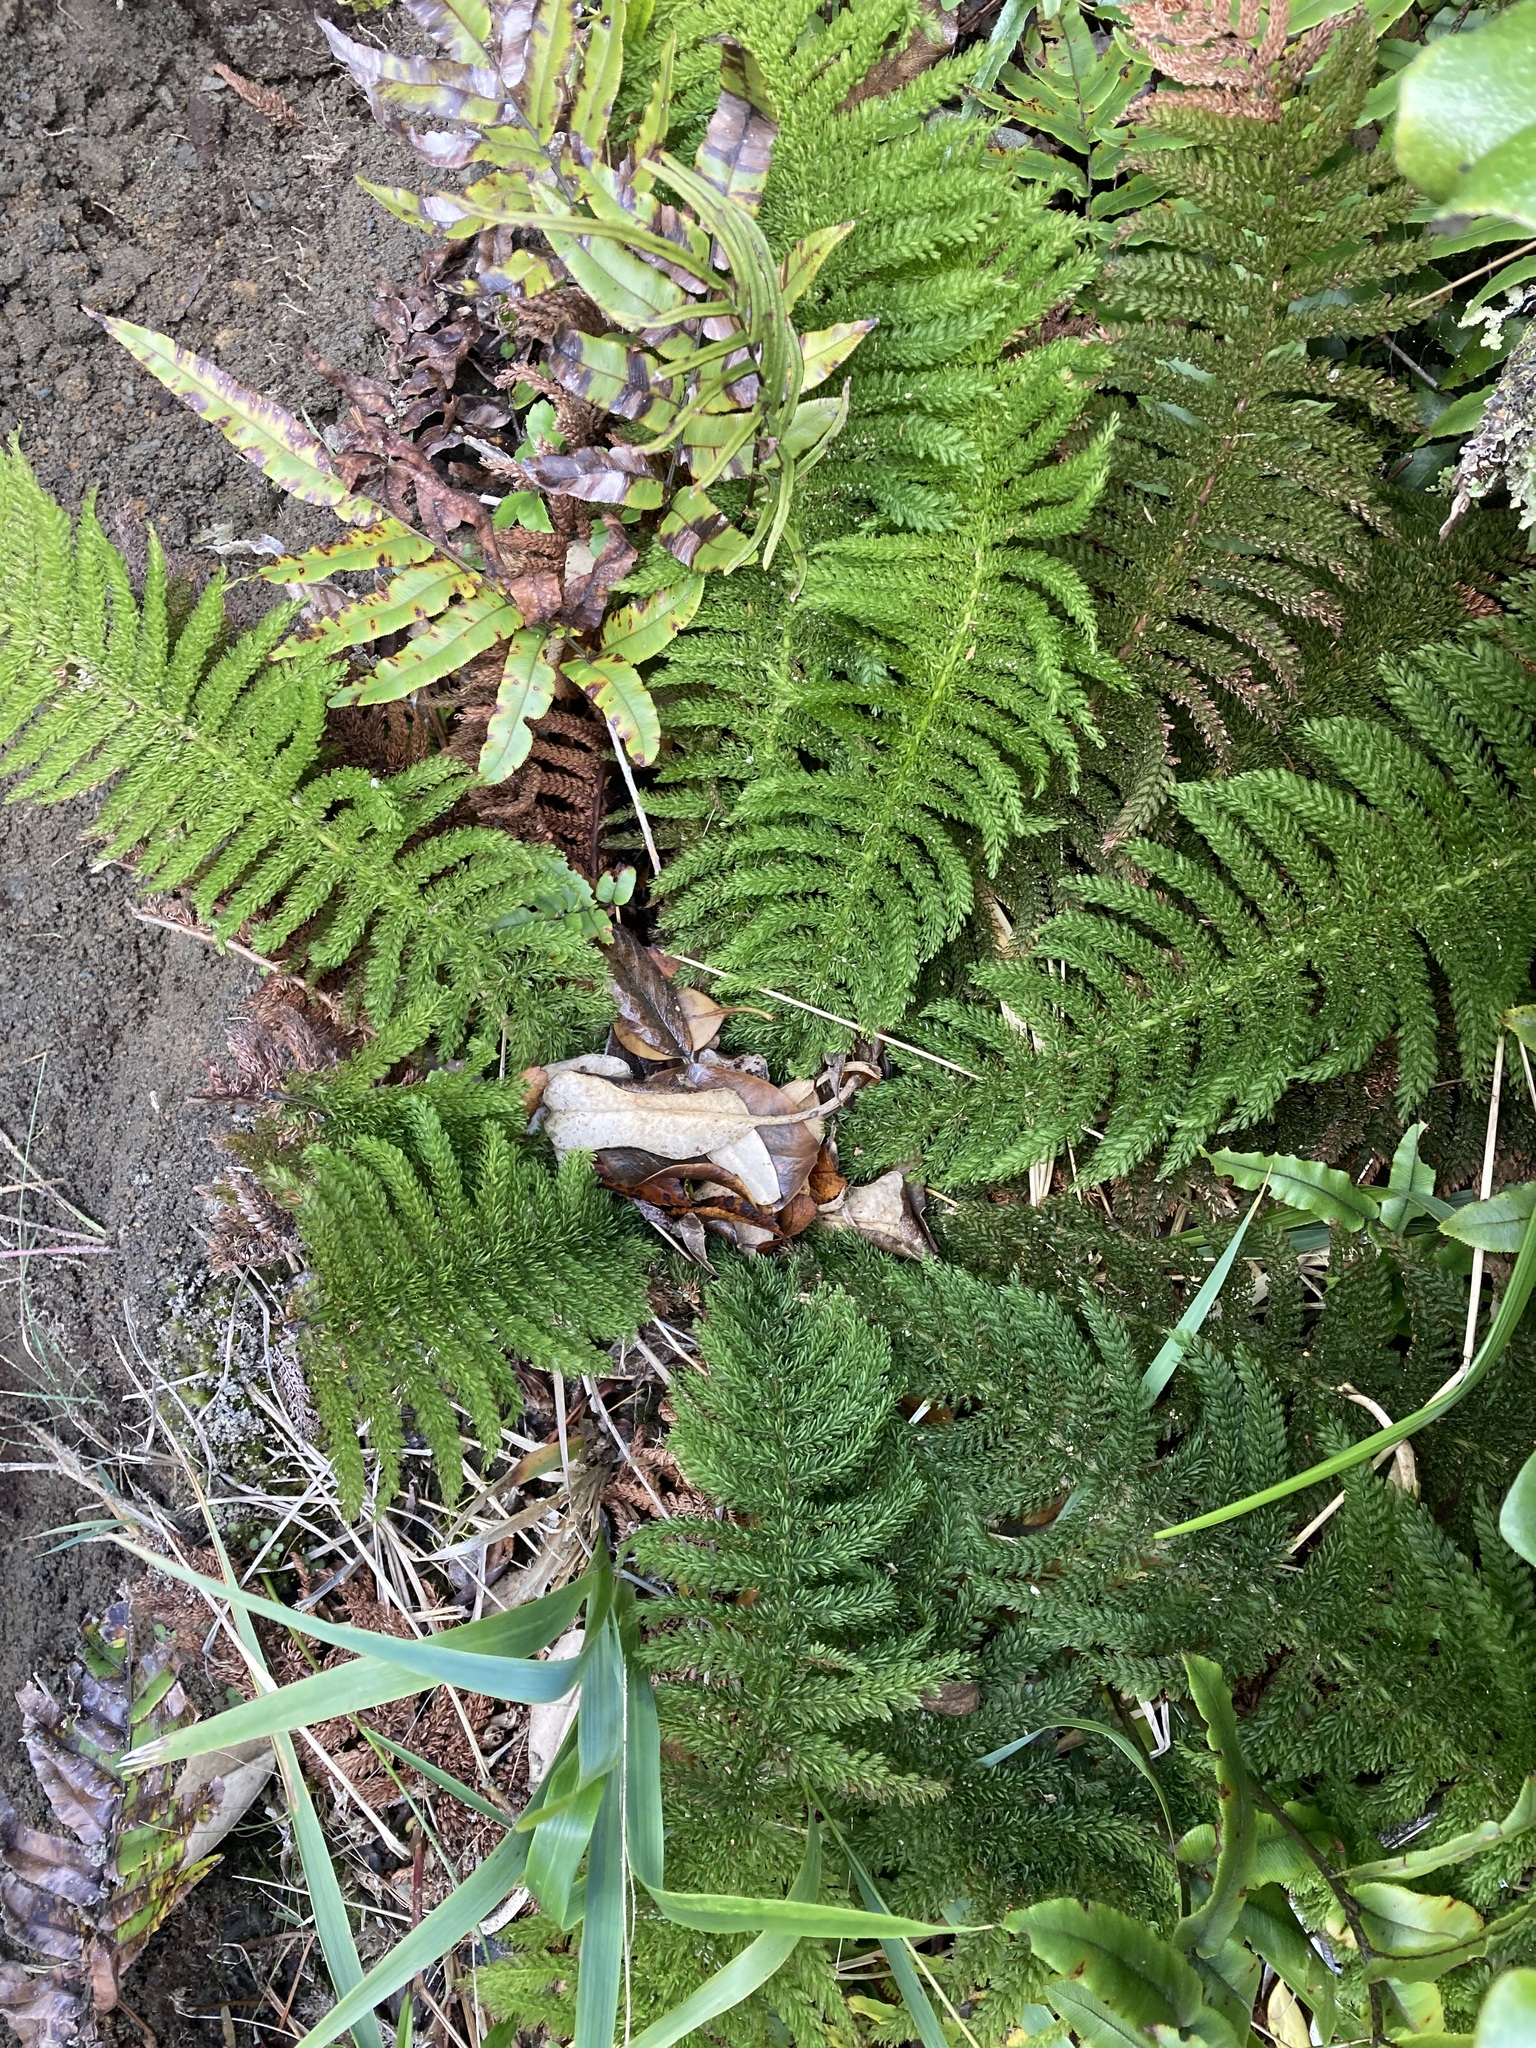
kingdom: Plantae
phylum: Tracheophyta
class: Polypodiopsida
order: Osmundales
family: Osmundaceae
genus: Leptopteris
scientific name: Leptopteris superba
